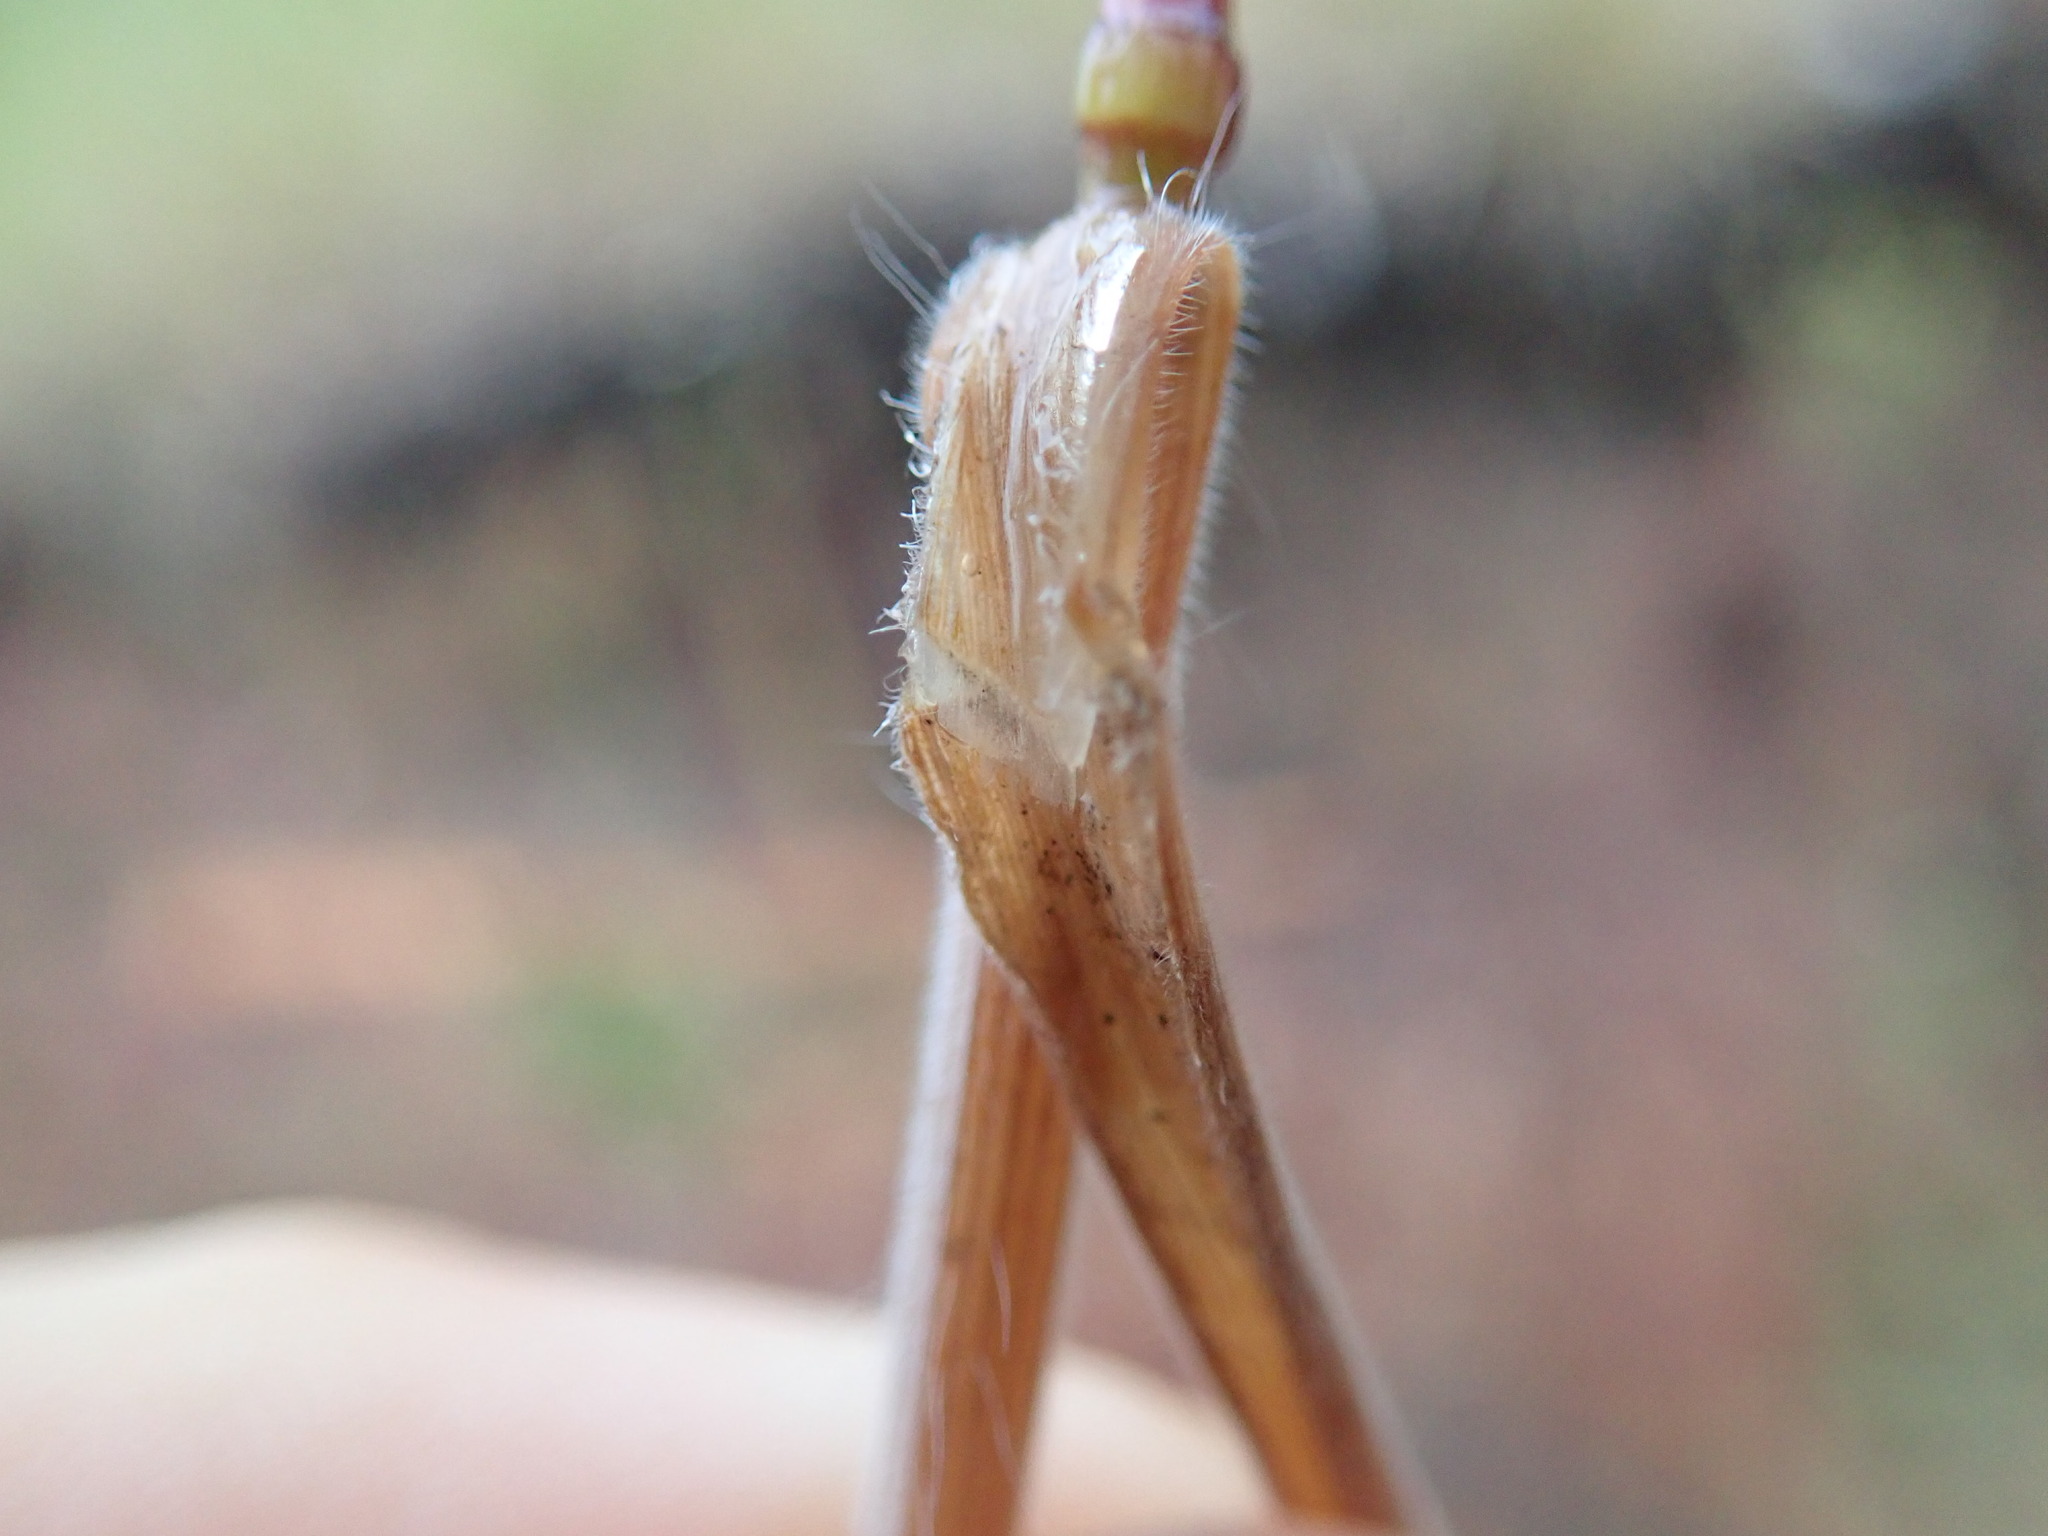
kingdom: Plantae
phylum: Tracheophyta
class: Liliopsida
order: Poales
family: Poaceae
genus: Bromus
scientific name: Bromus tectorum
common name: Cheatgrass
